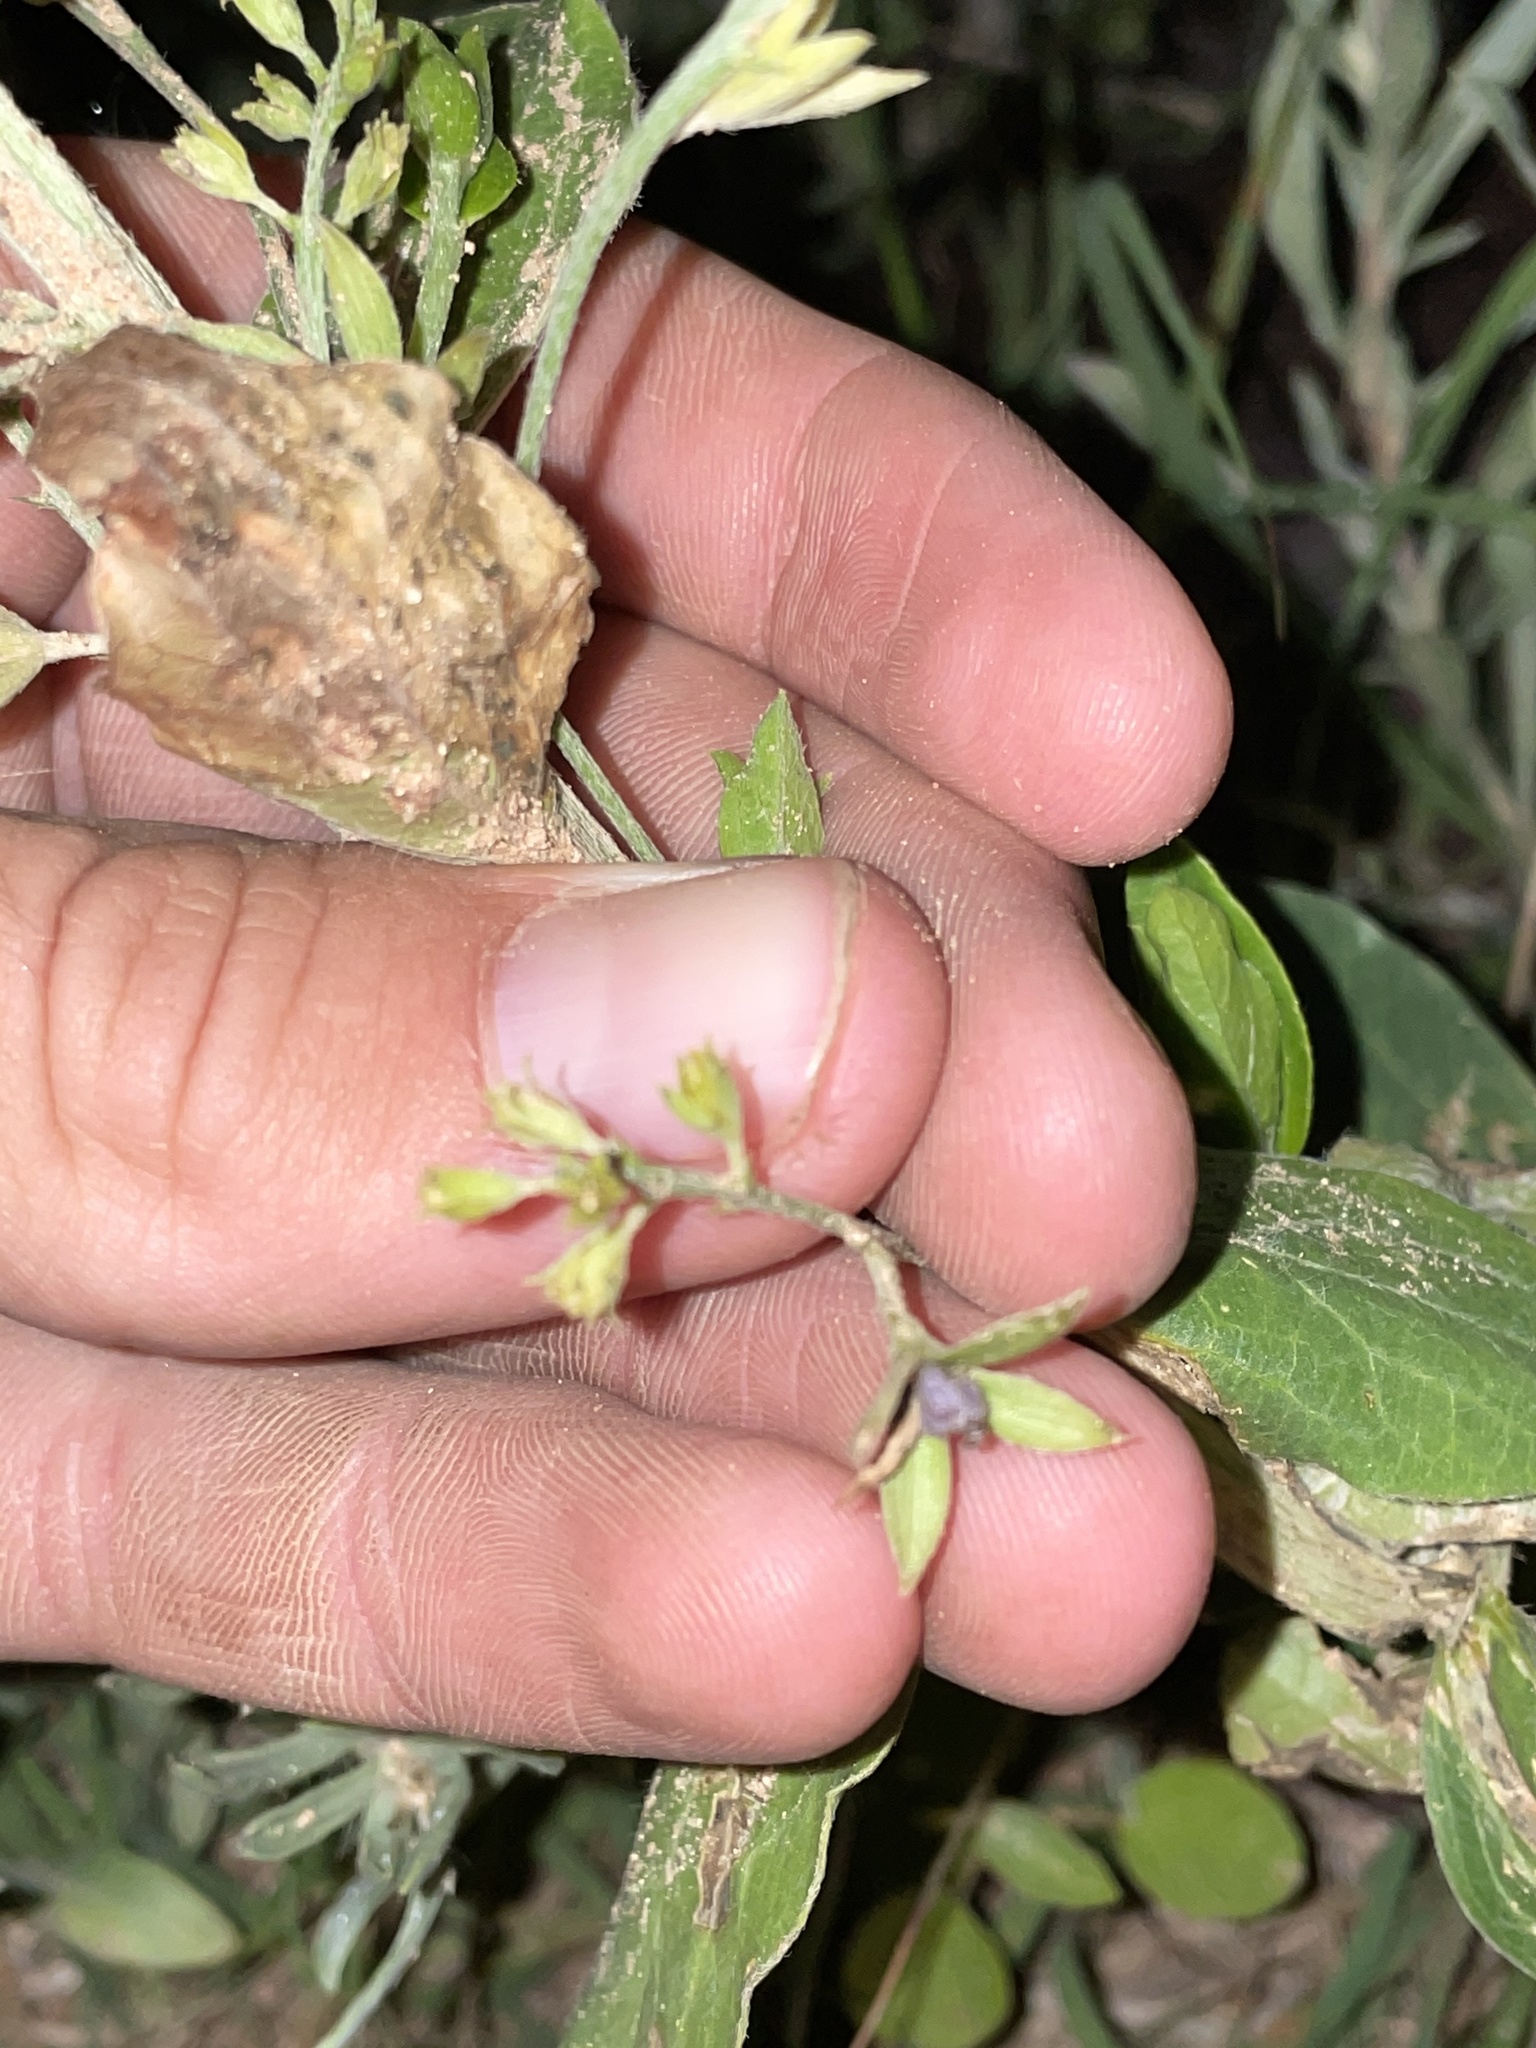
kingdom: Plantae
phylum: Tracheophyta
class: Magnoliopsida
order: Malpighiales
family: Euphorbiaceae
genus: Ditaxis
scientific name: Ditaxis mercurialina
